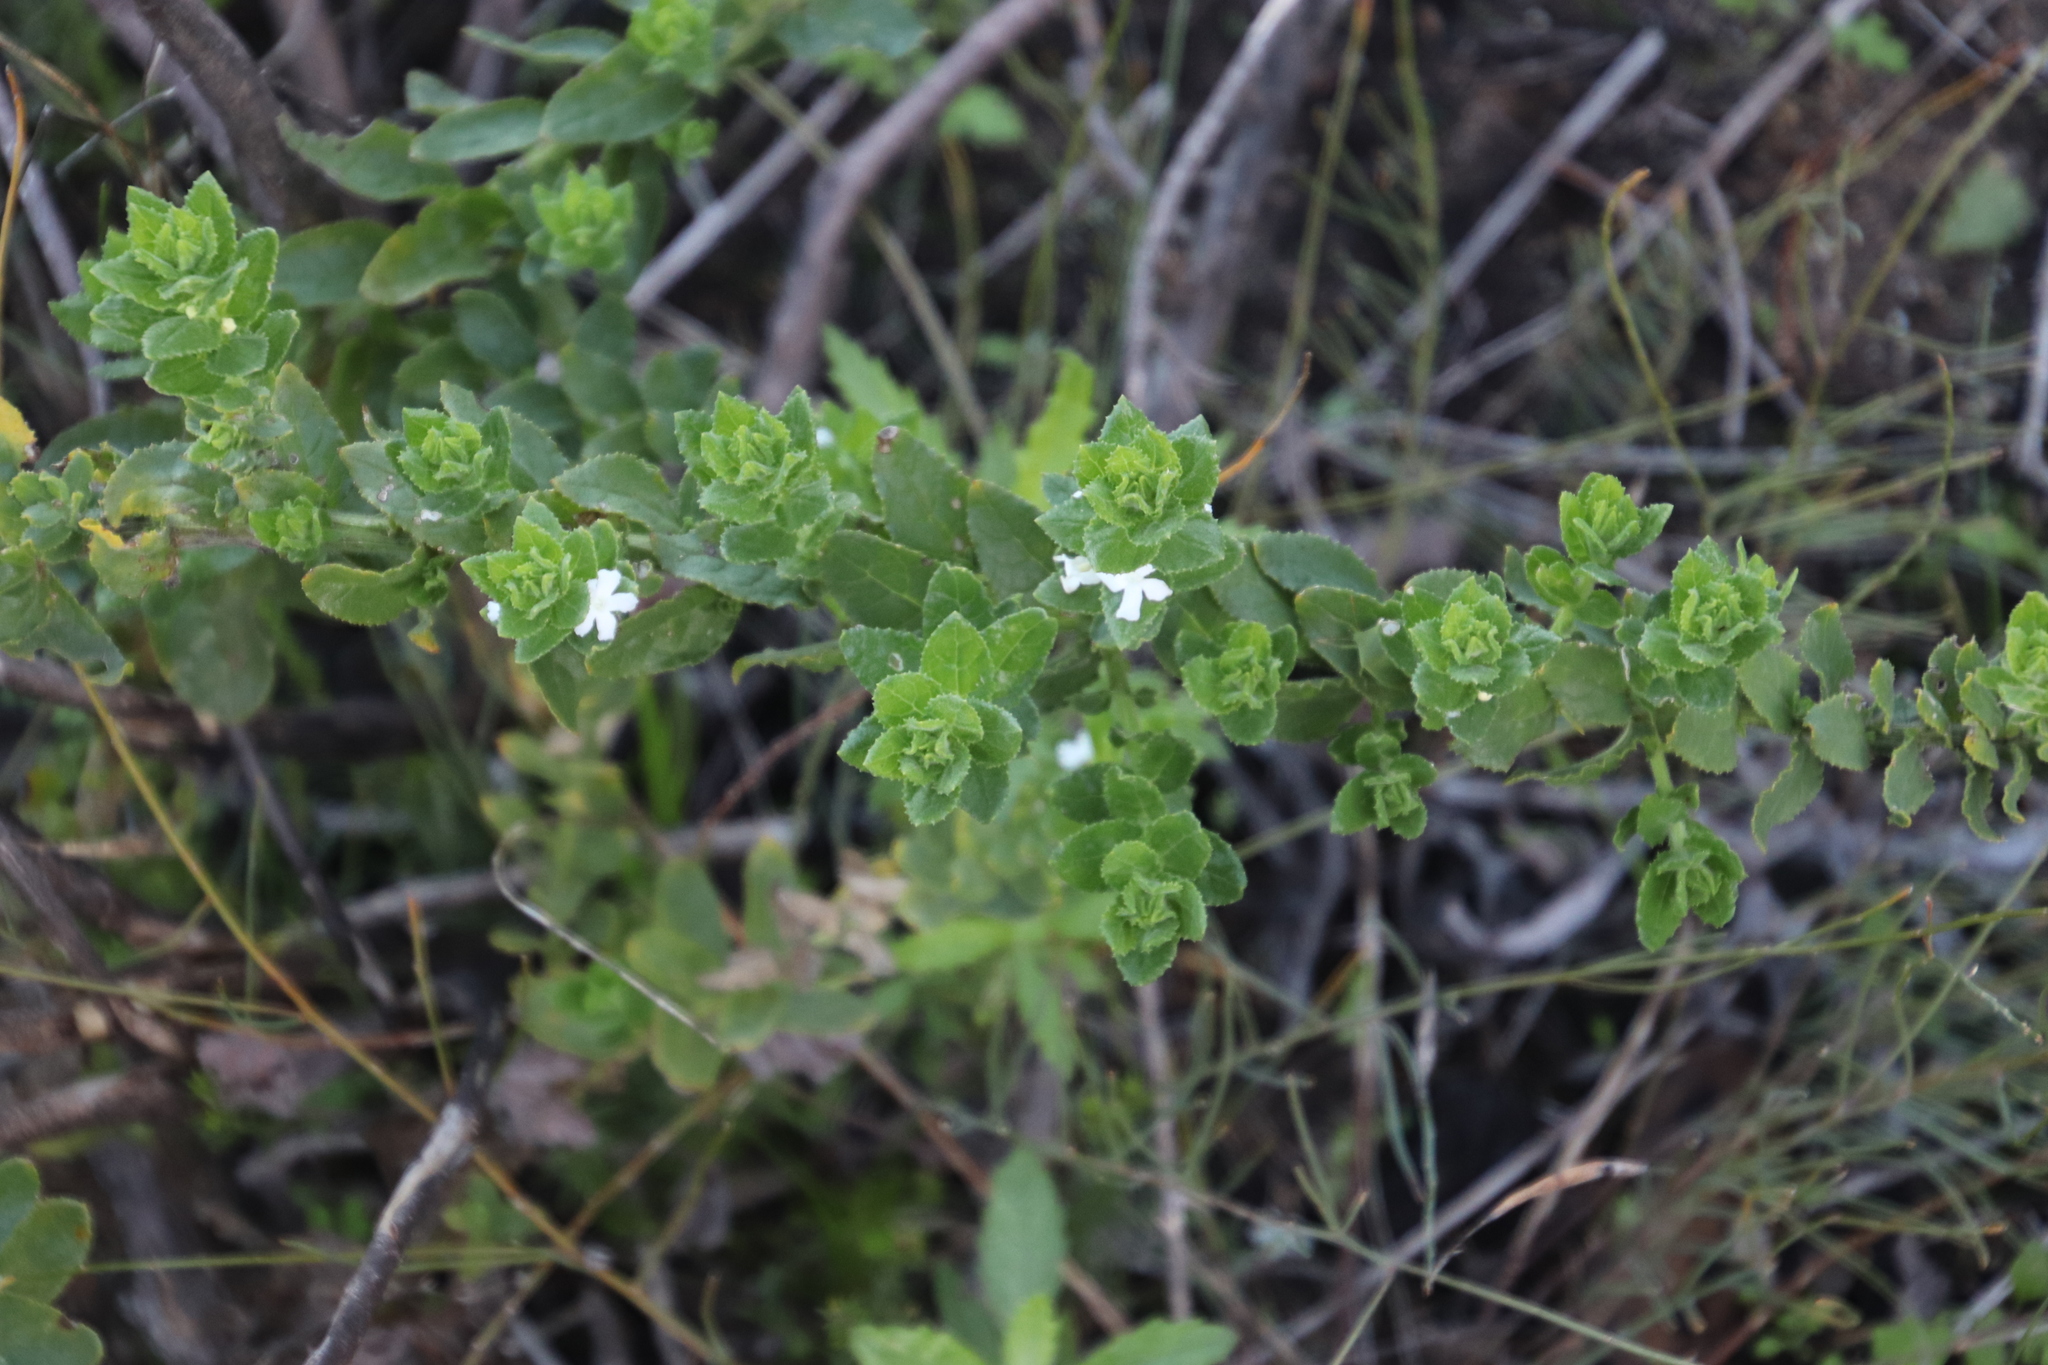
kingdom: Plantae
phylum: Tracheophyta
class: Magnoliopsida
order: Lamiales
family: Scrophulariaceae
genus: Oftia
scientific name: Oftia africana
